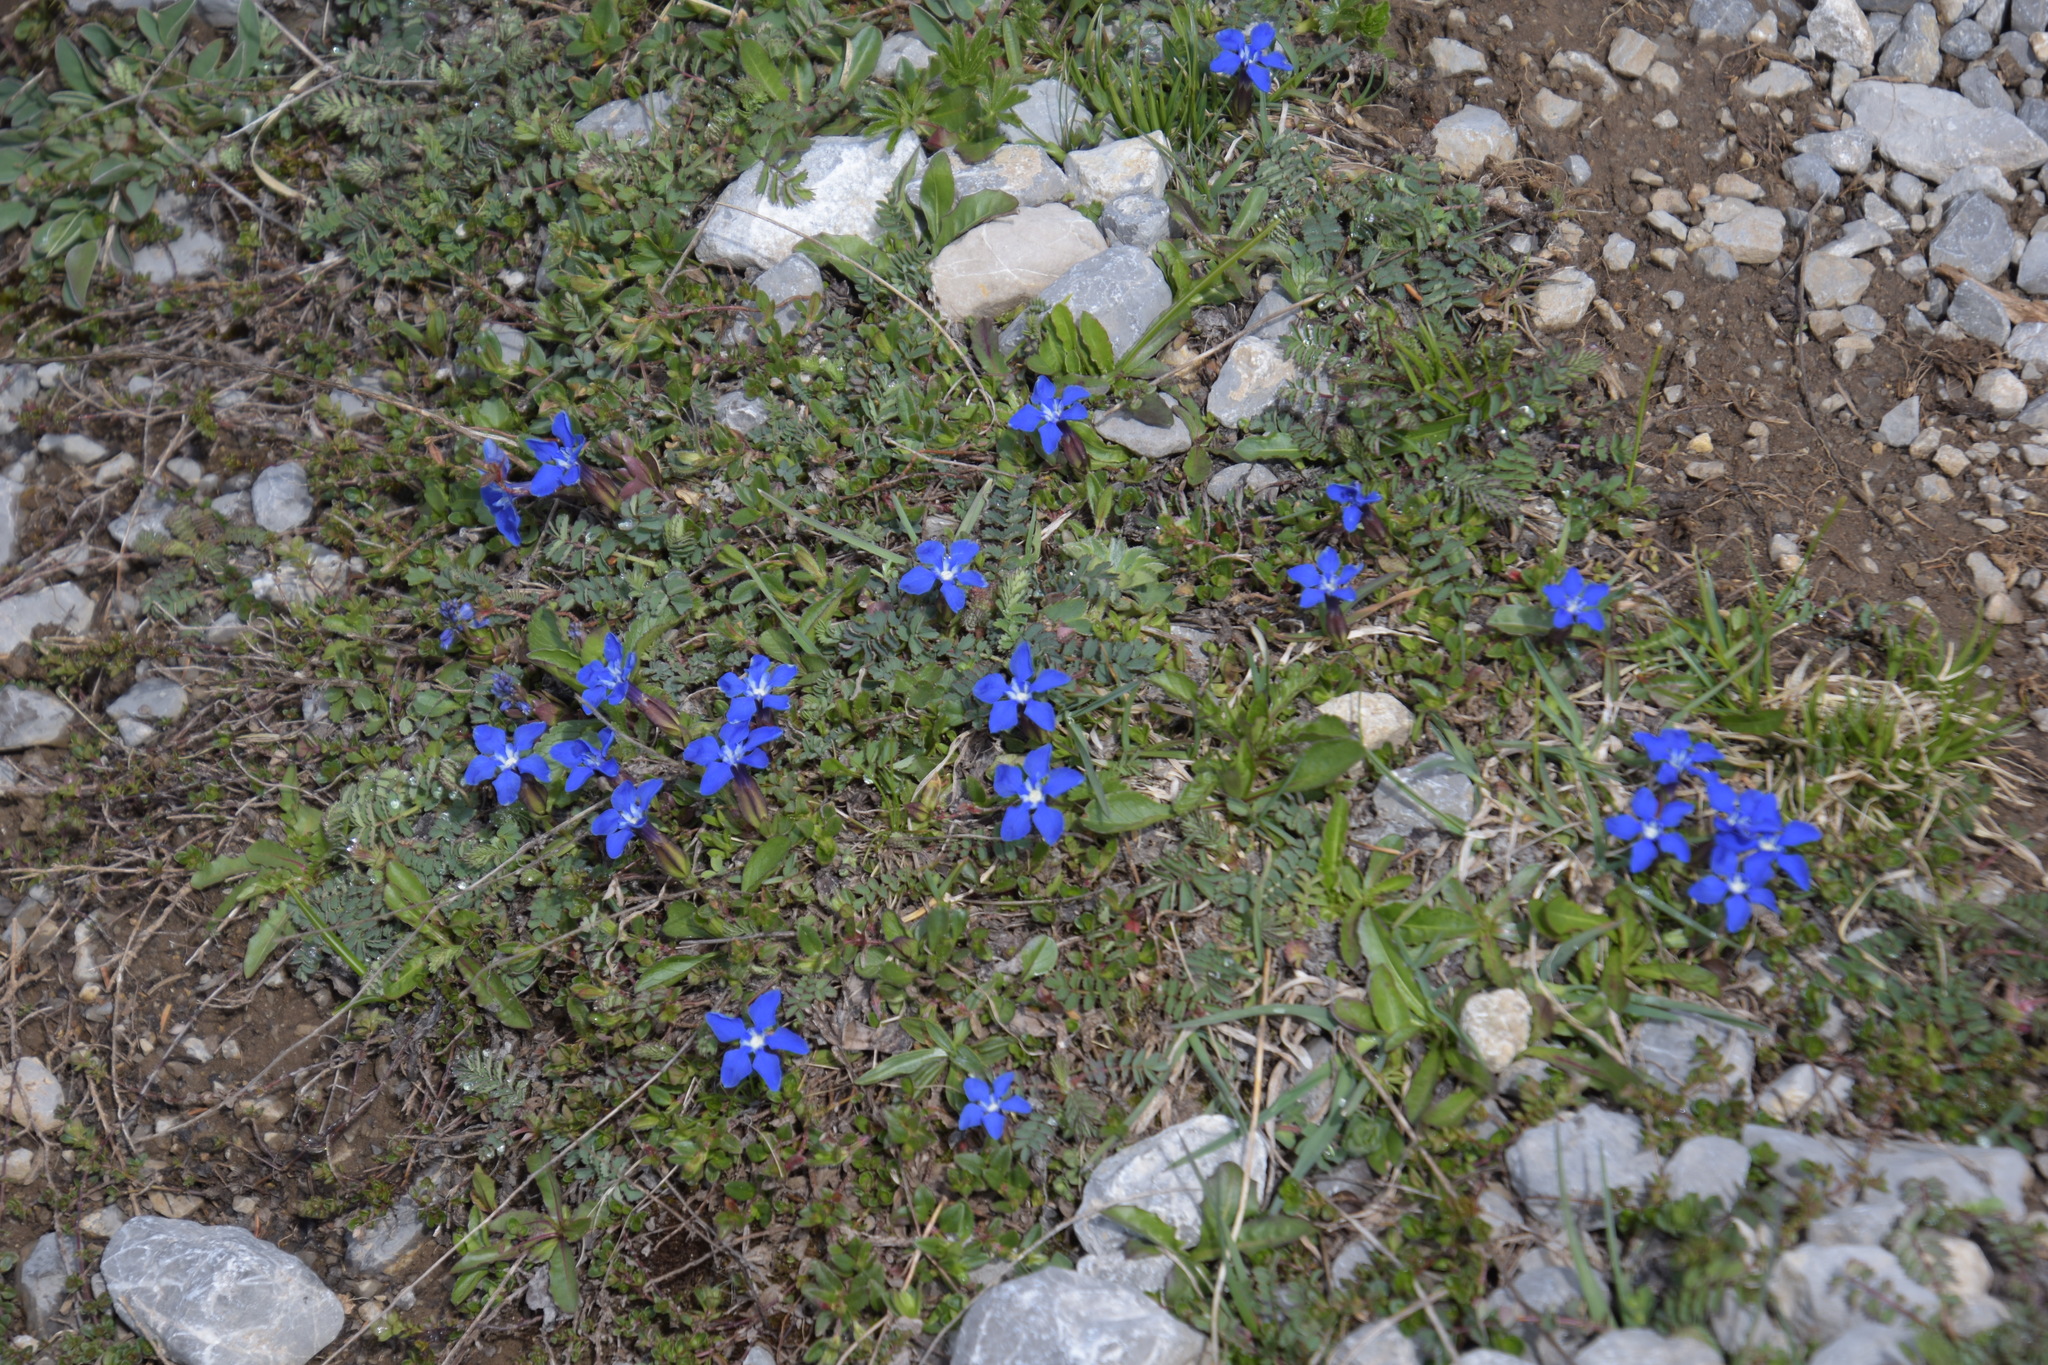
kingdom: Plantae
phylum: Tracheophyta
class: Magnoliopsida
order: Gentianales
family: Gentianaceae
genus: Gentiana
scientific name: Gentiana verna
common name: Spring gentian
